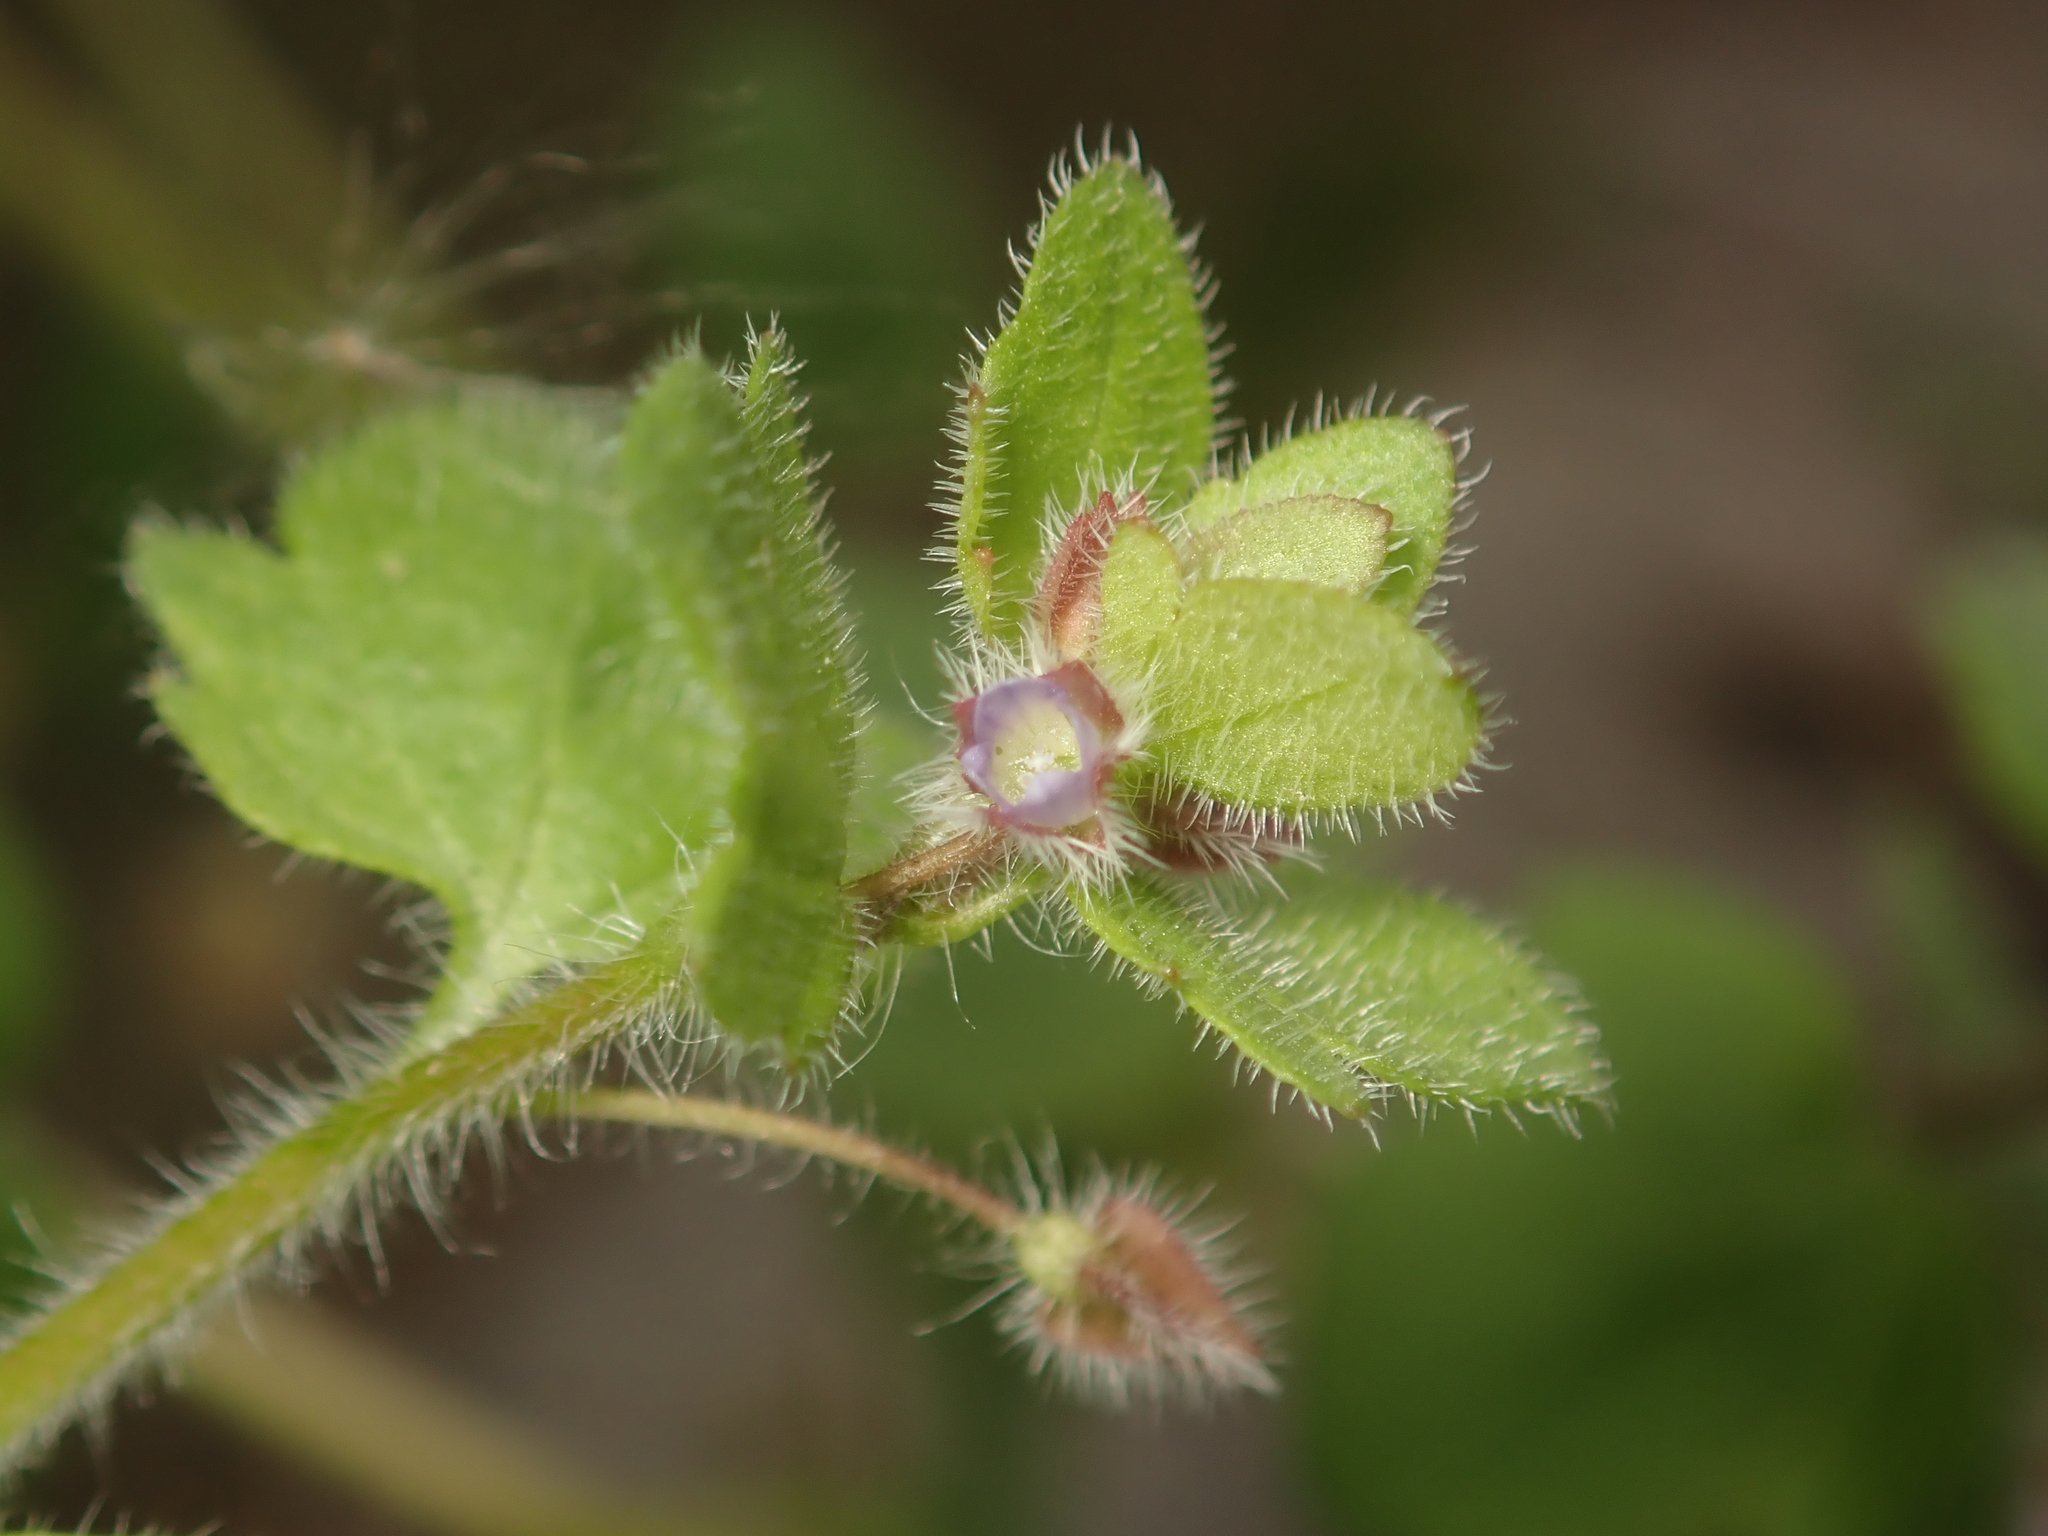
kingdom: Plantae
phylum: Tracheophyta
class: Magnoliopsida
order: Lamiales
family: Plantaginaceae
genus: Veronica
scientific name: Veronica hederifolia
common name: Ivy-leaved speedwell
